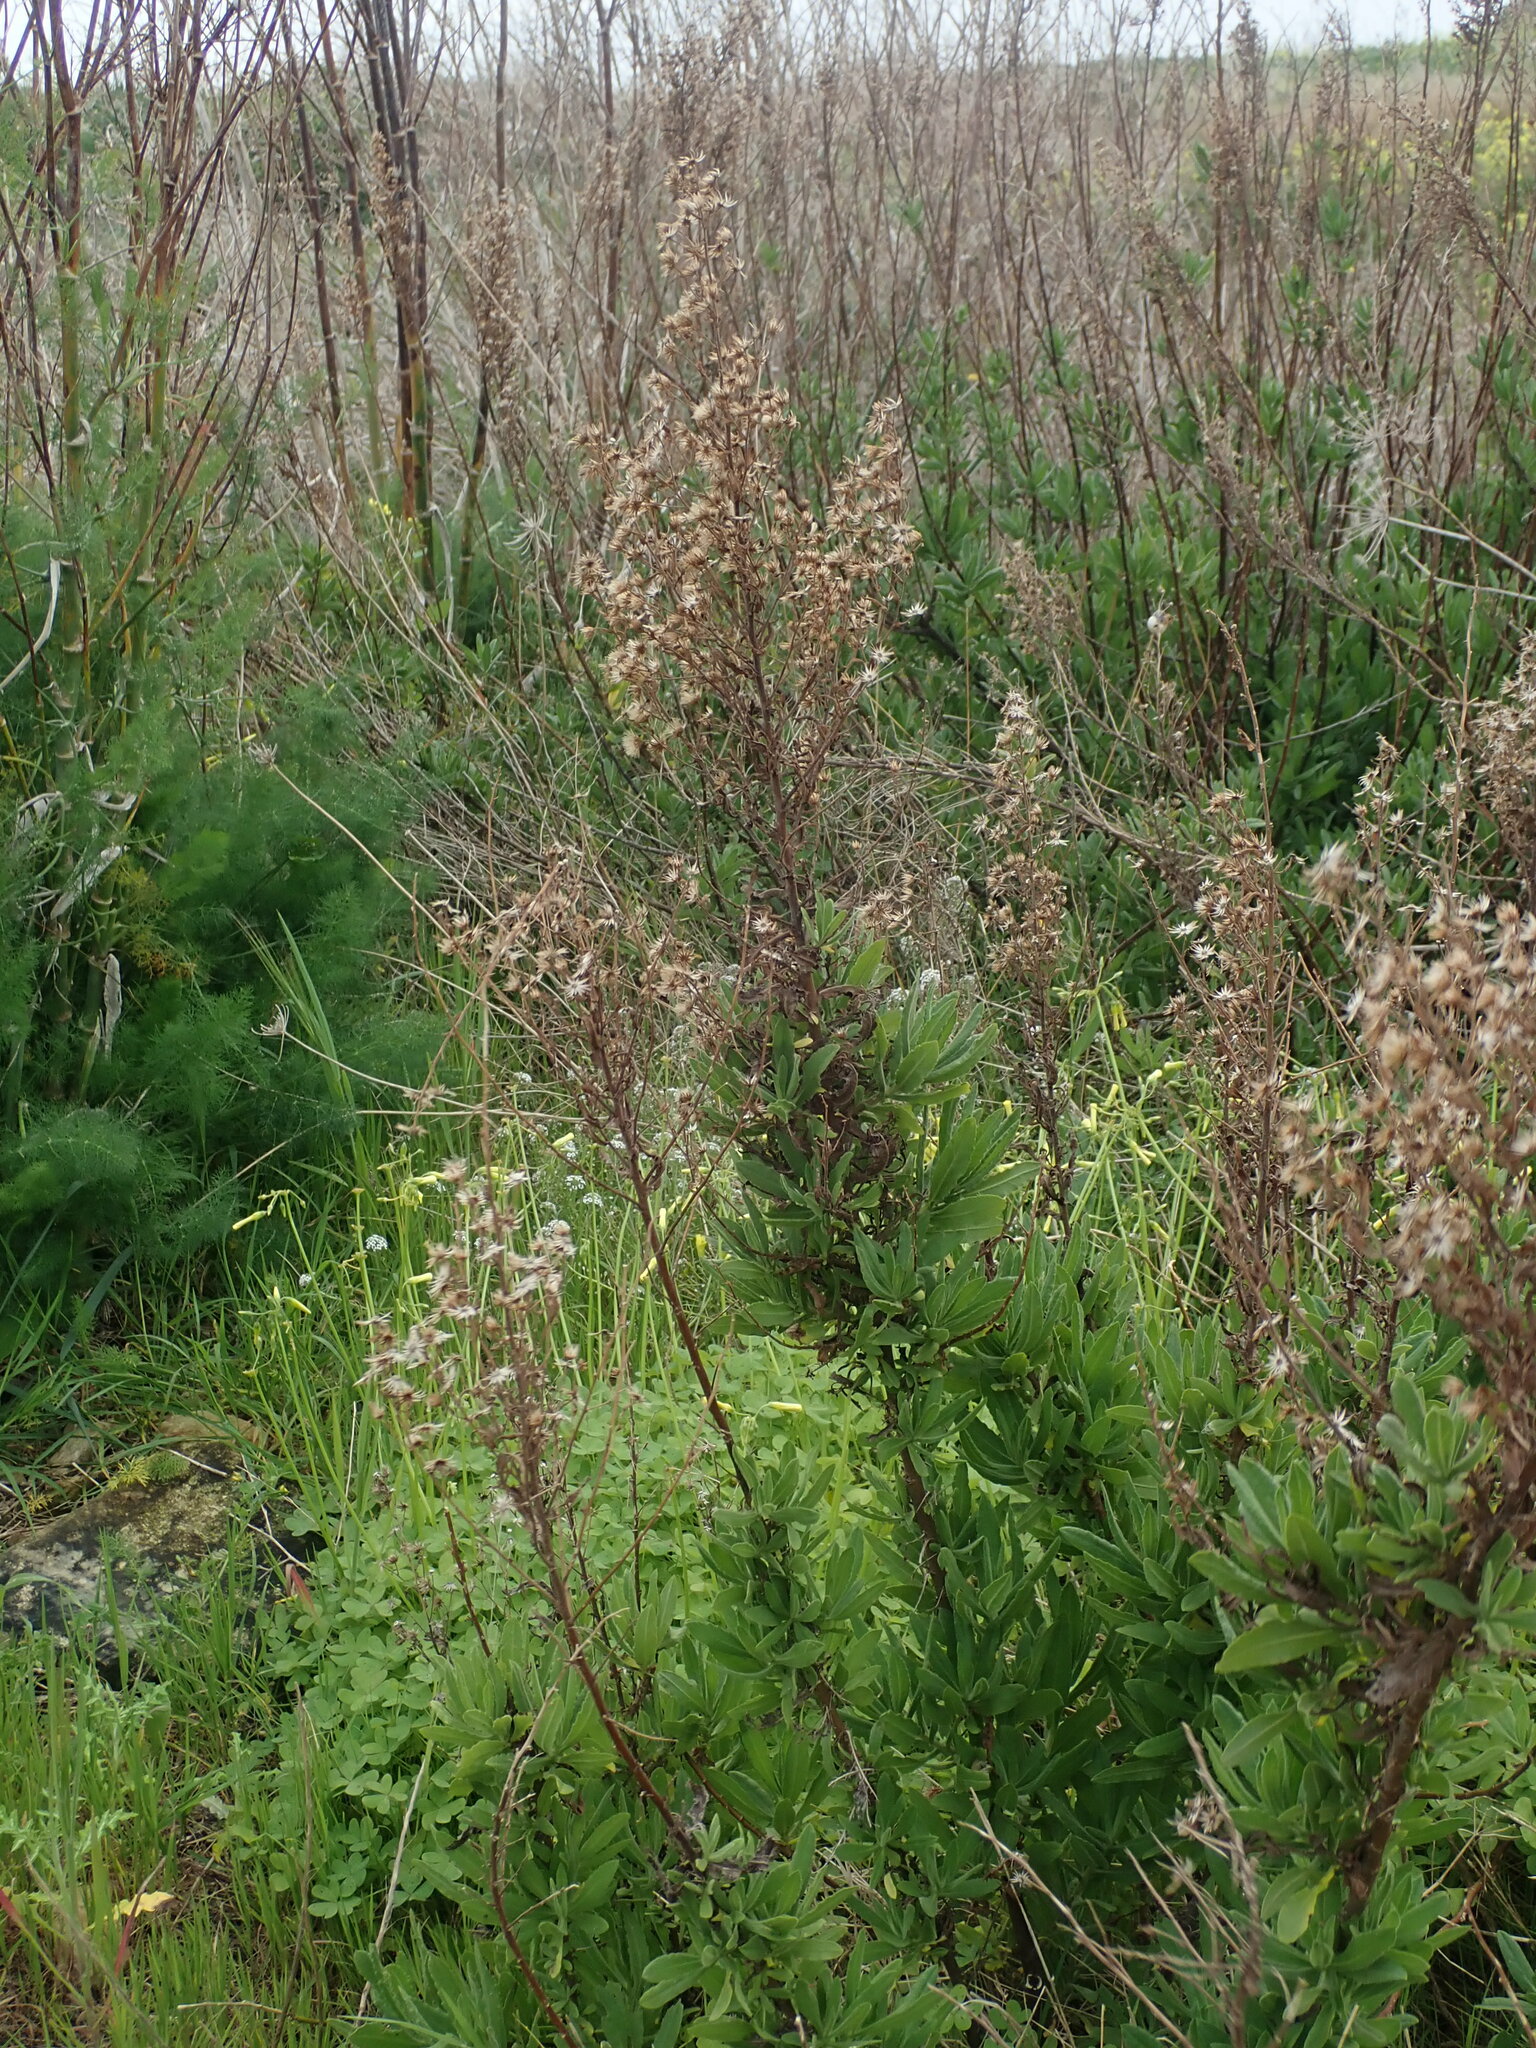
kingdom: Plantae
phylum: Tracheophyta
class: Magnoliopsida
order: Asterales
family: Asteraceae
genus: Dittrichia
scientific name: Dittrichia viscosa
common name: Woody fleabane
